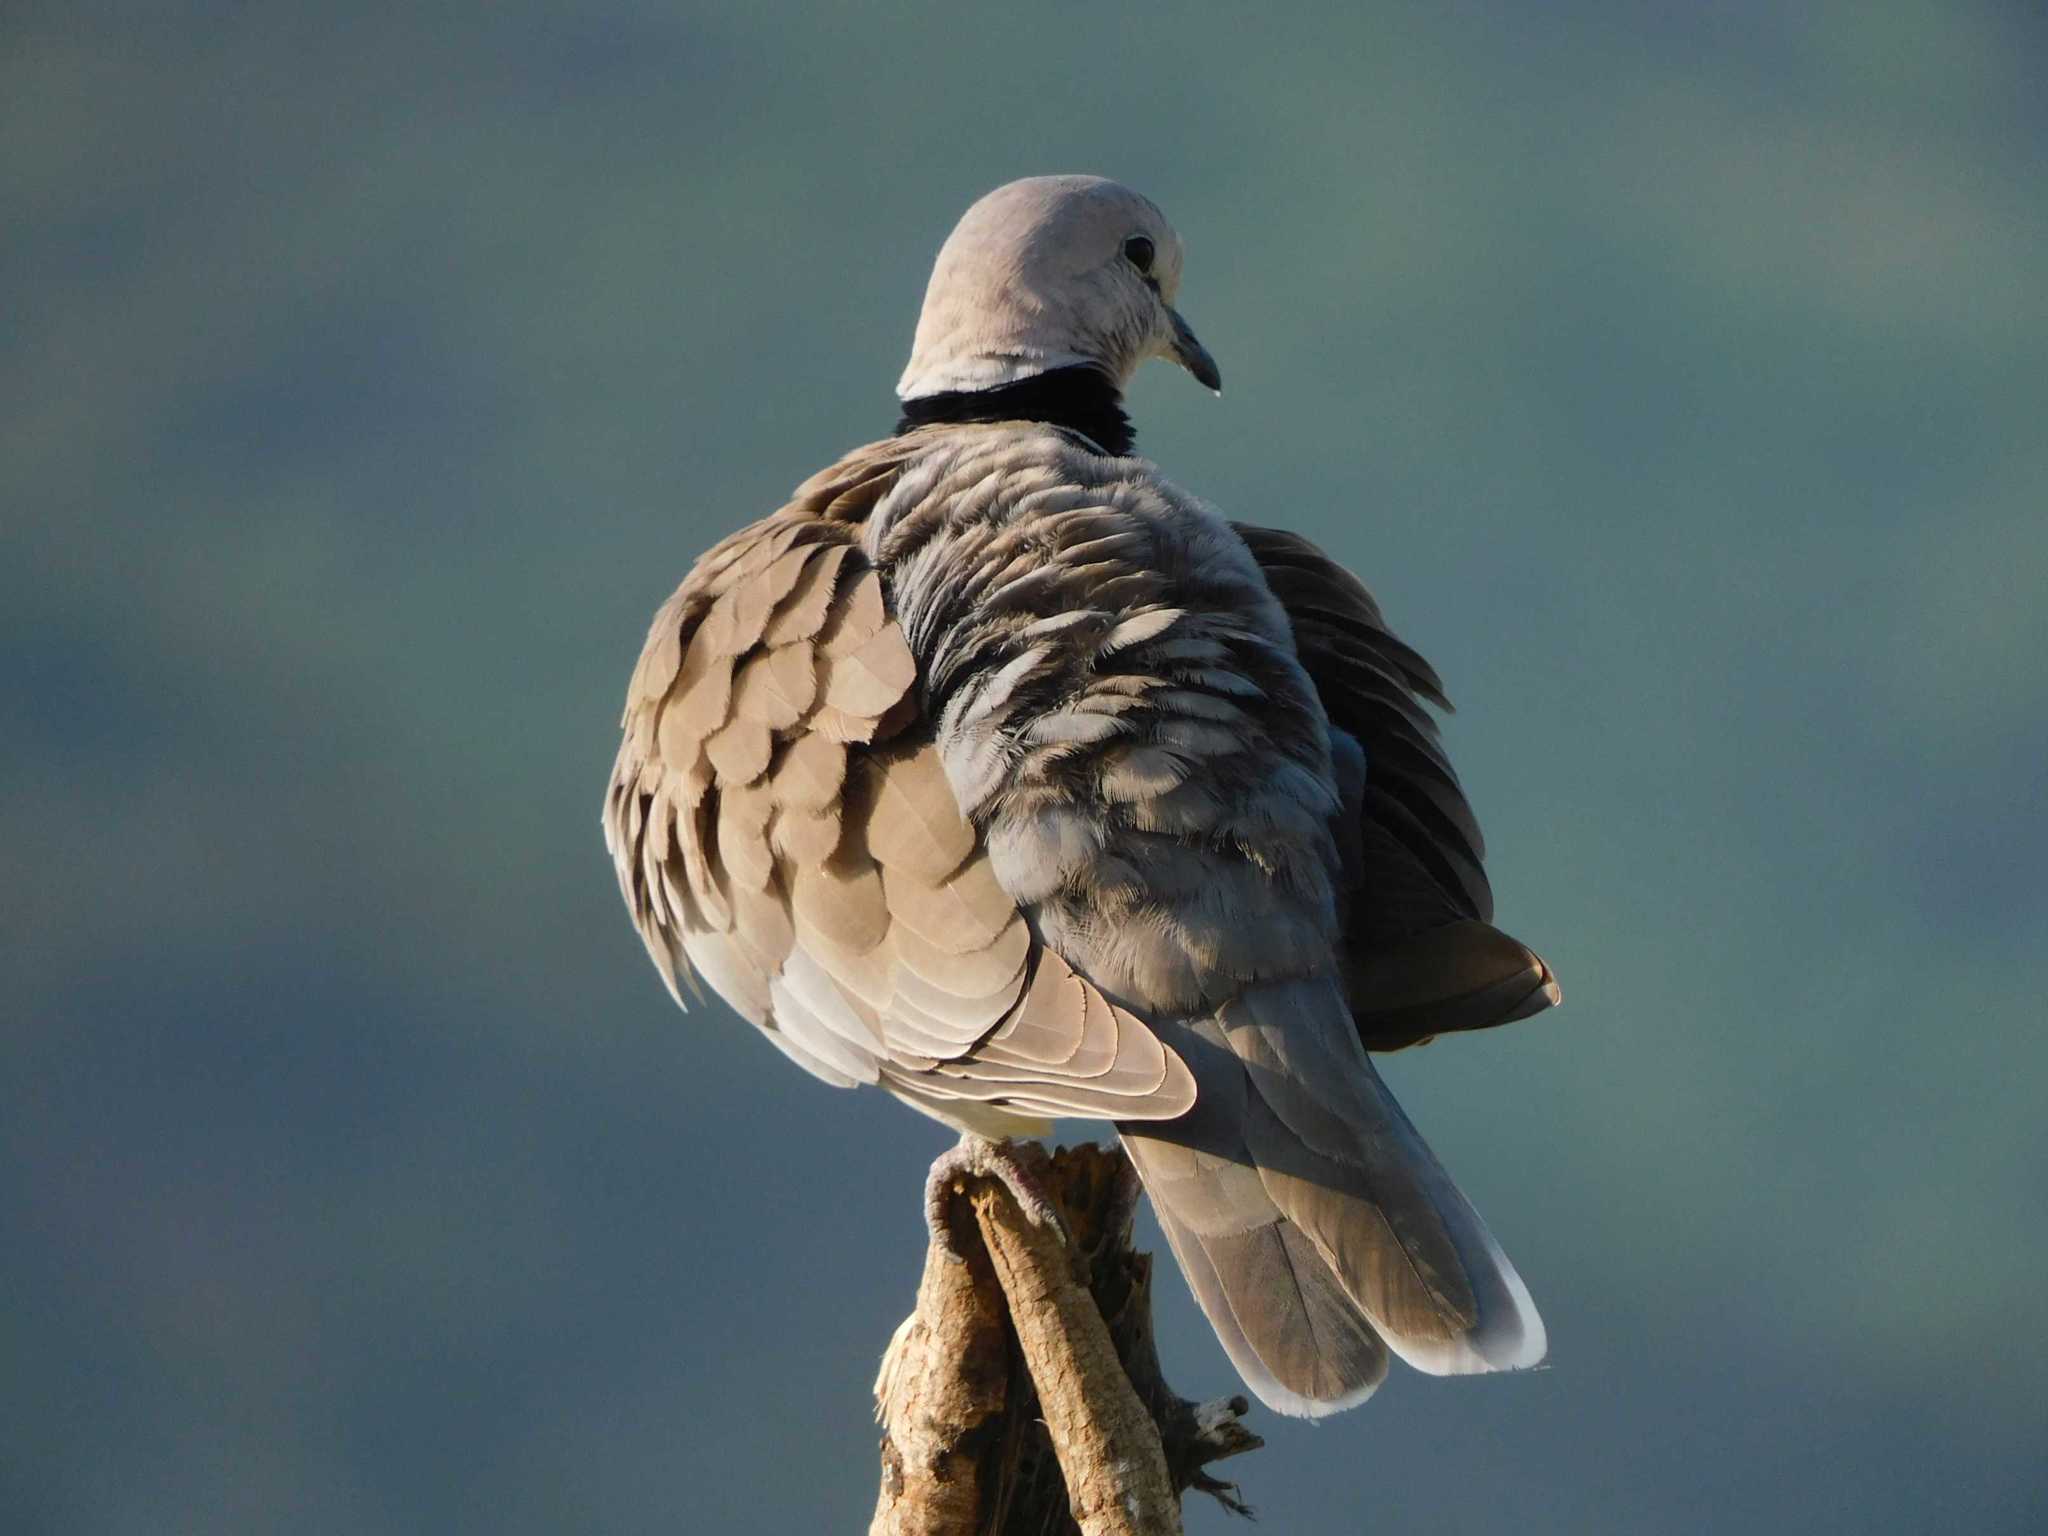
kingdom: Animalia
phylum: Chordata
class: Aves
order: Columbiformes
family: Columbidae
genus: Streptopelia
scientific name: Streptopelia capicola
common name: Ring-necked dove
